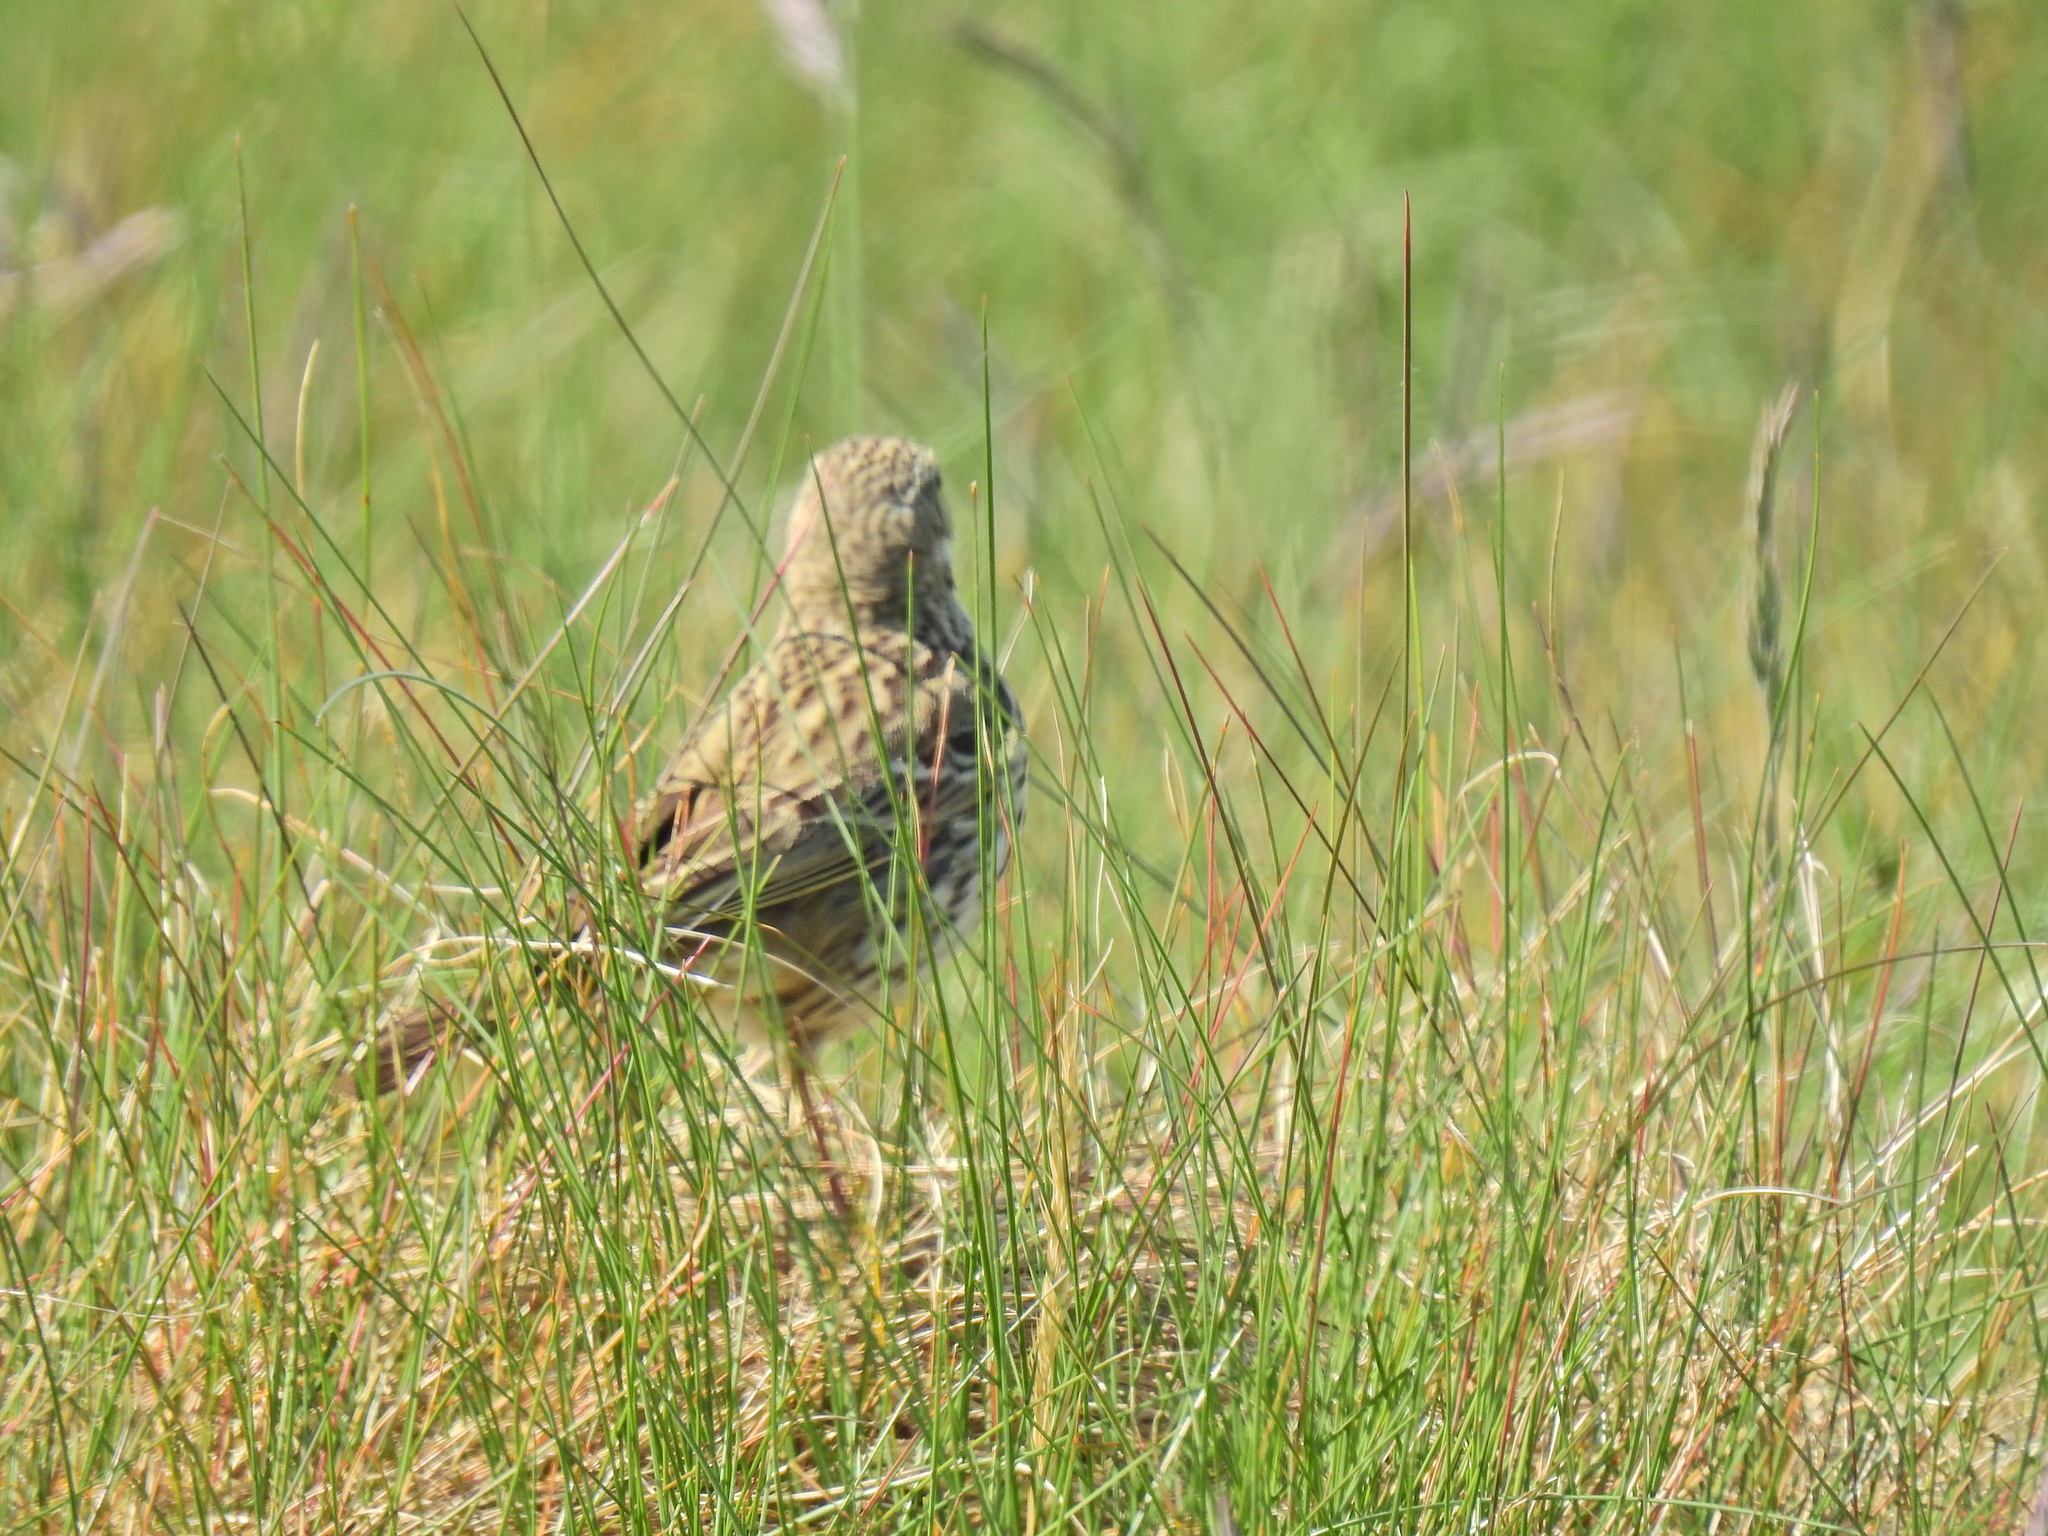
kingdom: Animalia
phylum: Chordata
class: Aves
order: Passeriformes
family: Motacillidae
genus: Anthus
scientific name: Anthus pratensis
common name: Meadow pipit
